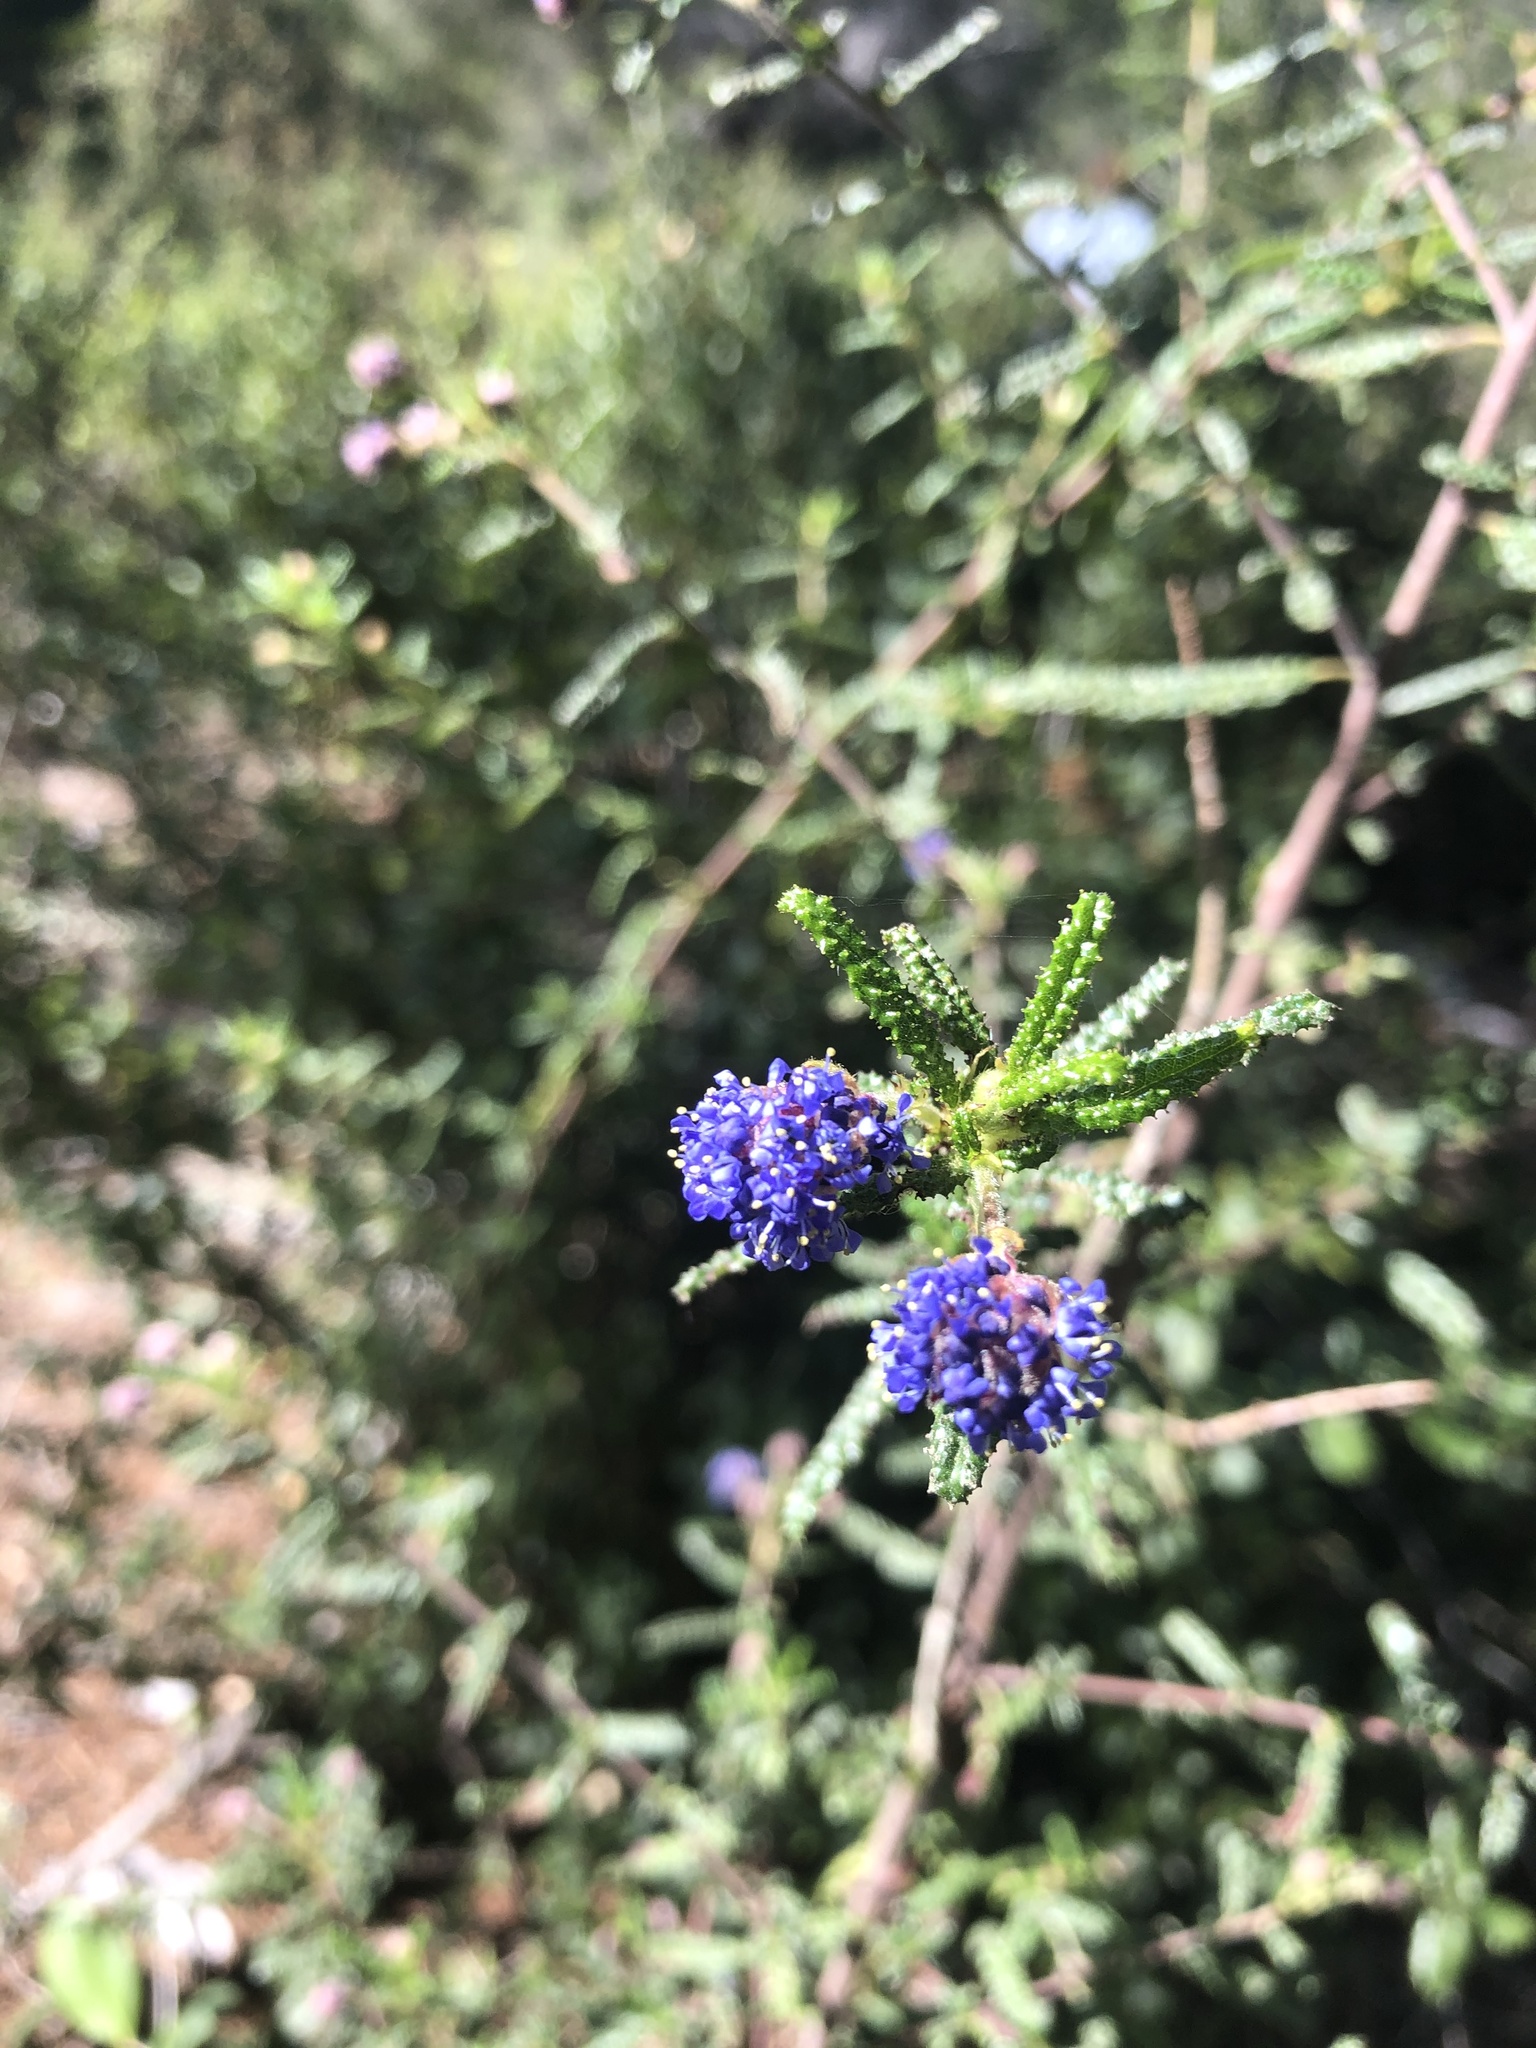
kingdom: Plantae
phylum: Tracheophyta
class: Magnoliopsida
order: Rosales
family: Rhamnaceae
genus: Ceanothus
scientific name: Ceanothus papillosus
